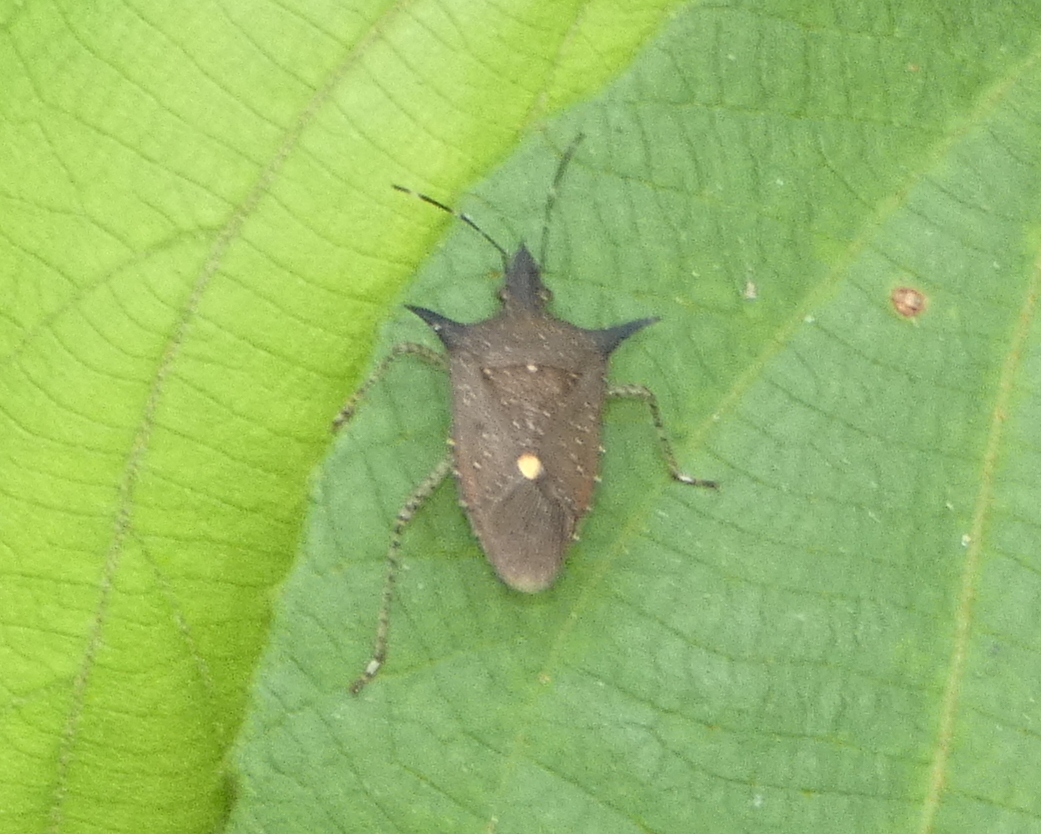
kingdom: Animalia
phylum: Arthropoda
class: Insecta
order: Hemiptera
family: Pentatomidae
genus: Proxys
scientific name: Proxys albopunctulatus
